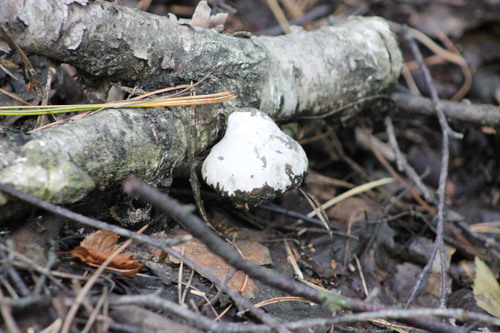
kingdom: Fungi
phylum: Basidiomycota
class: Agaricomycetes
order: Polyporales
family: Fomitopsidaceae
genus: Fomitopsis
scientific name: Fomitopsis betulina
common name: Birch polypore
